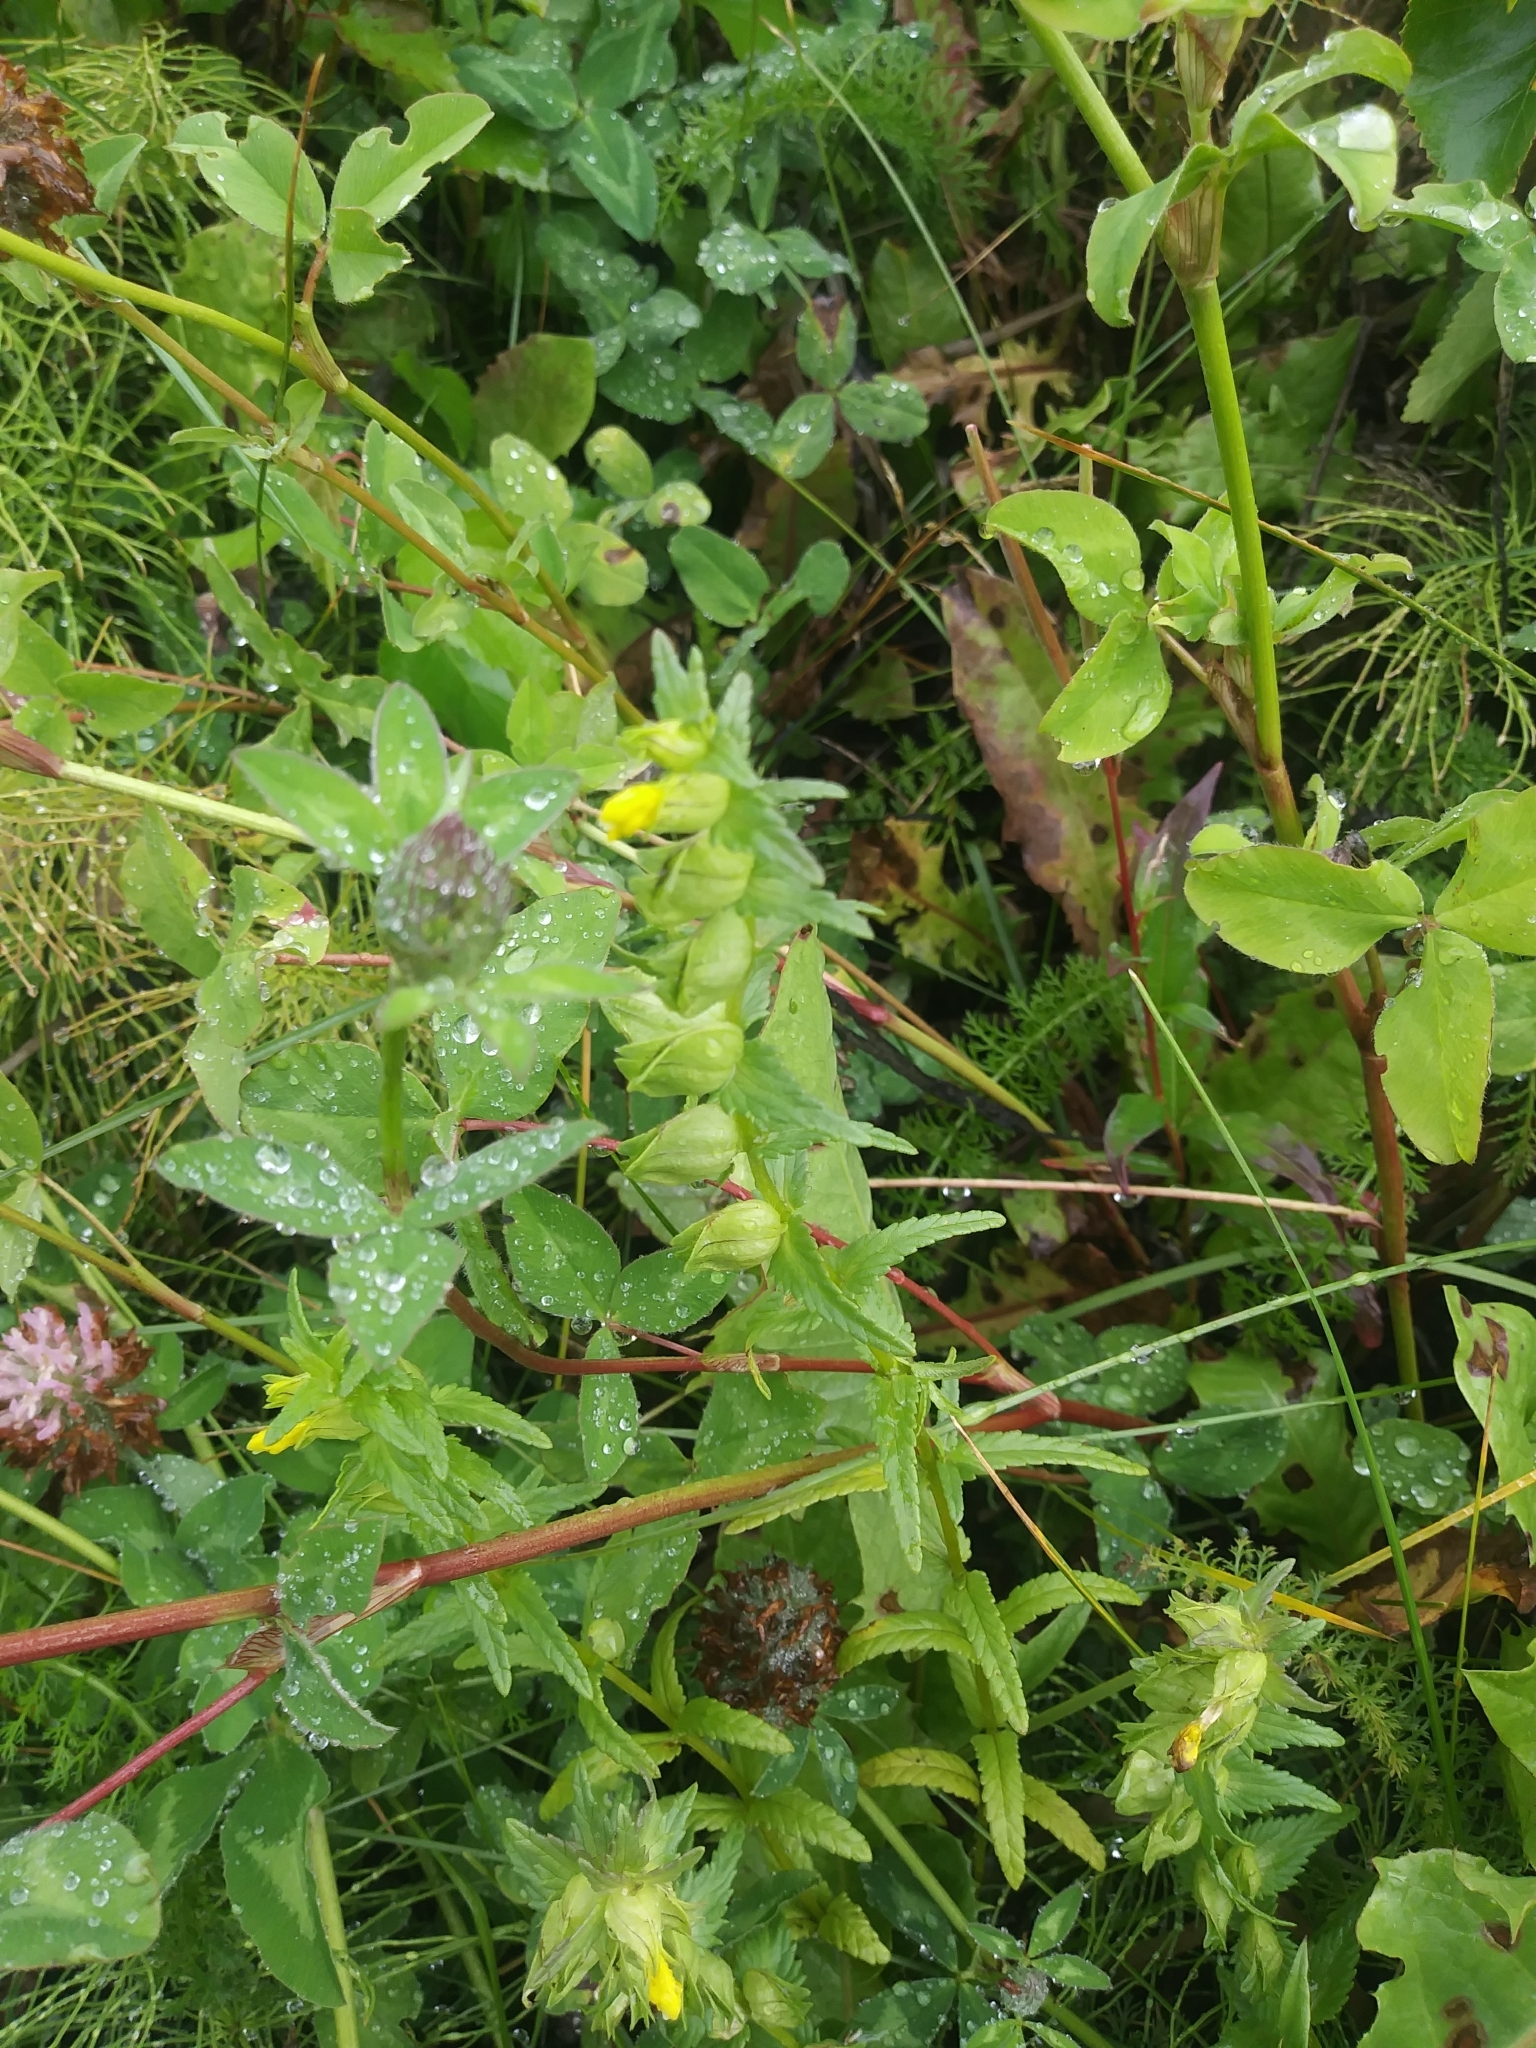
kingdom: Plantae
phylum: Tracheophyta
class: Magnoliopsida
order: Lamiales
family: Orobanchaceae
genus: Rhinanthus
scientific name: Rhinanthus minor
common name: Yellow-rattle
